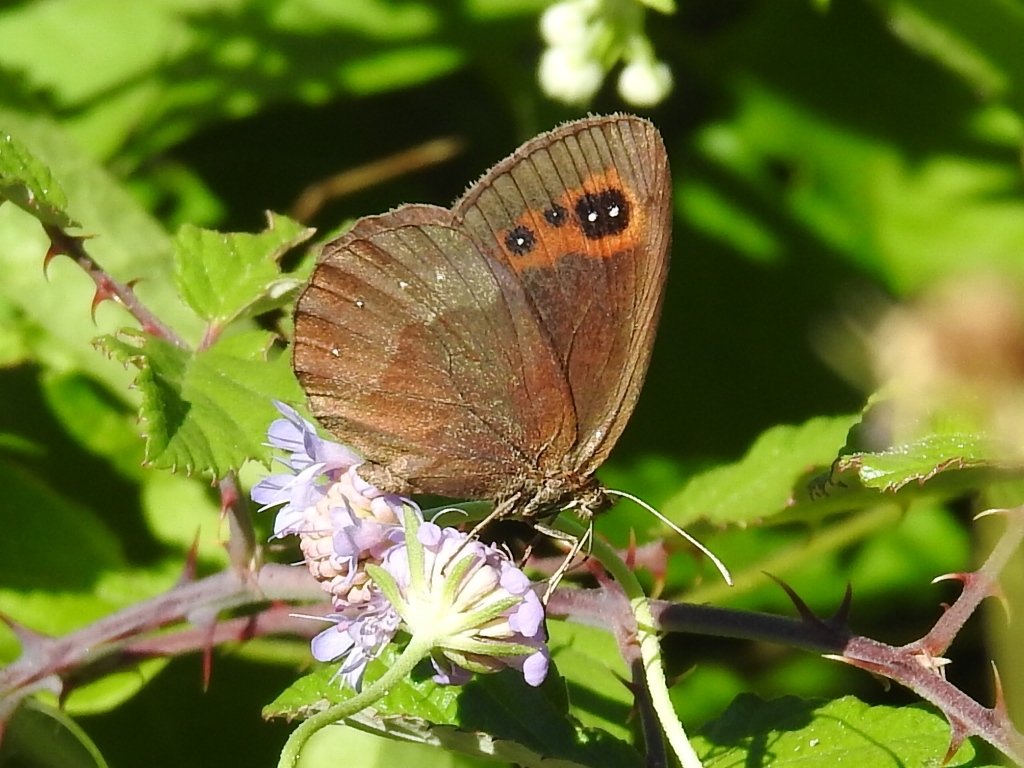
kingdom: Animalia
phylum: Arthropoda
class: Insecta
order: Lepidoptera
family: Nymphalidae
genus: Erebia
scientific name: Erebia aethiops
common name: Scotch argus
